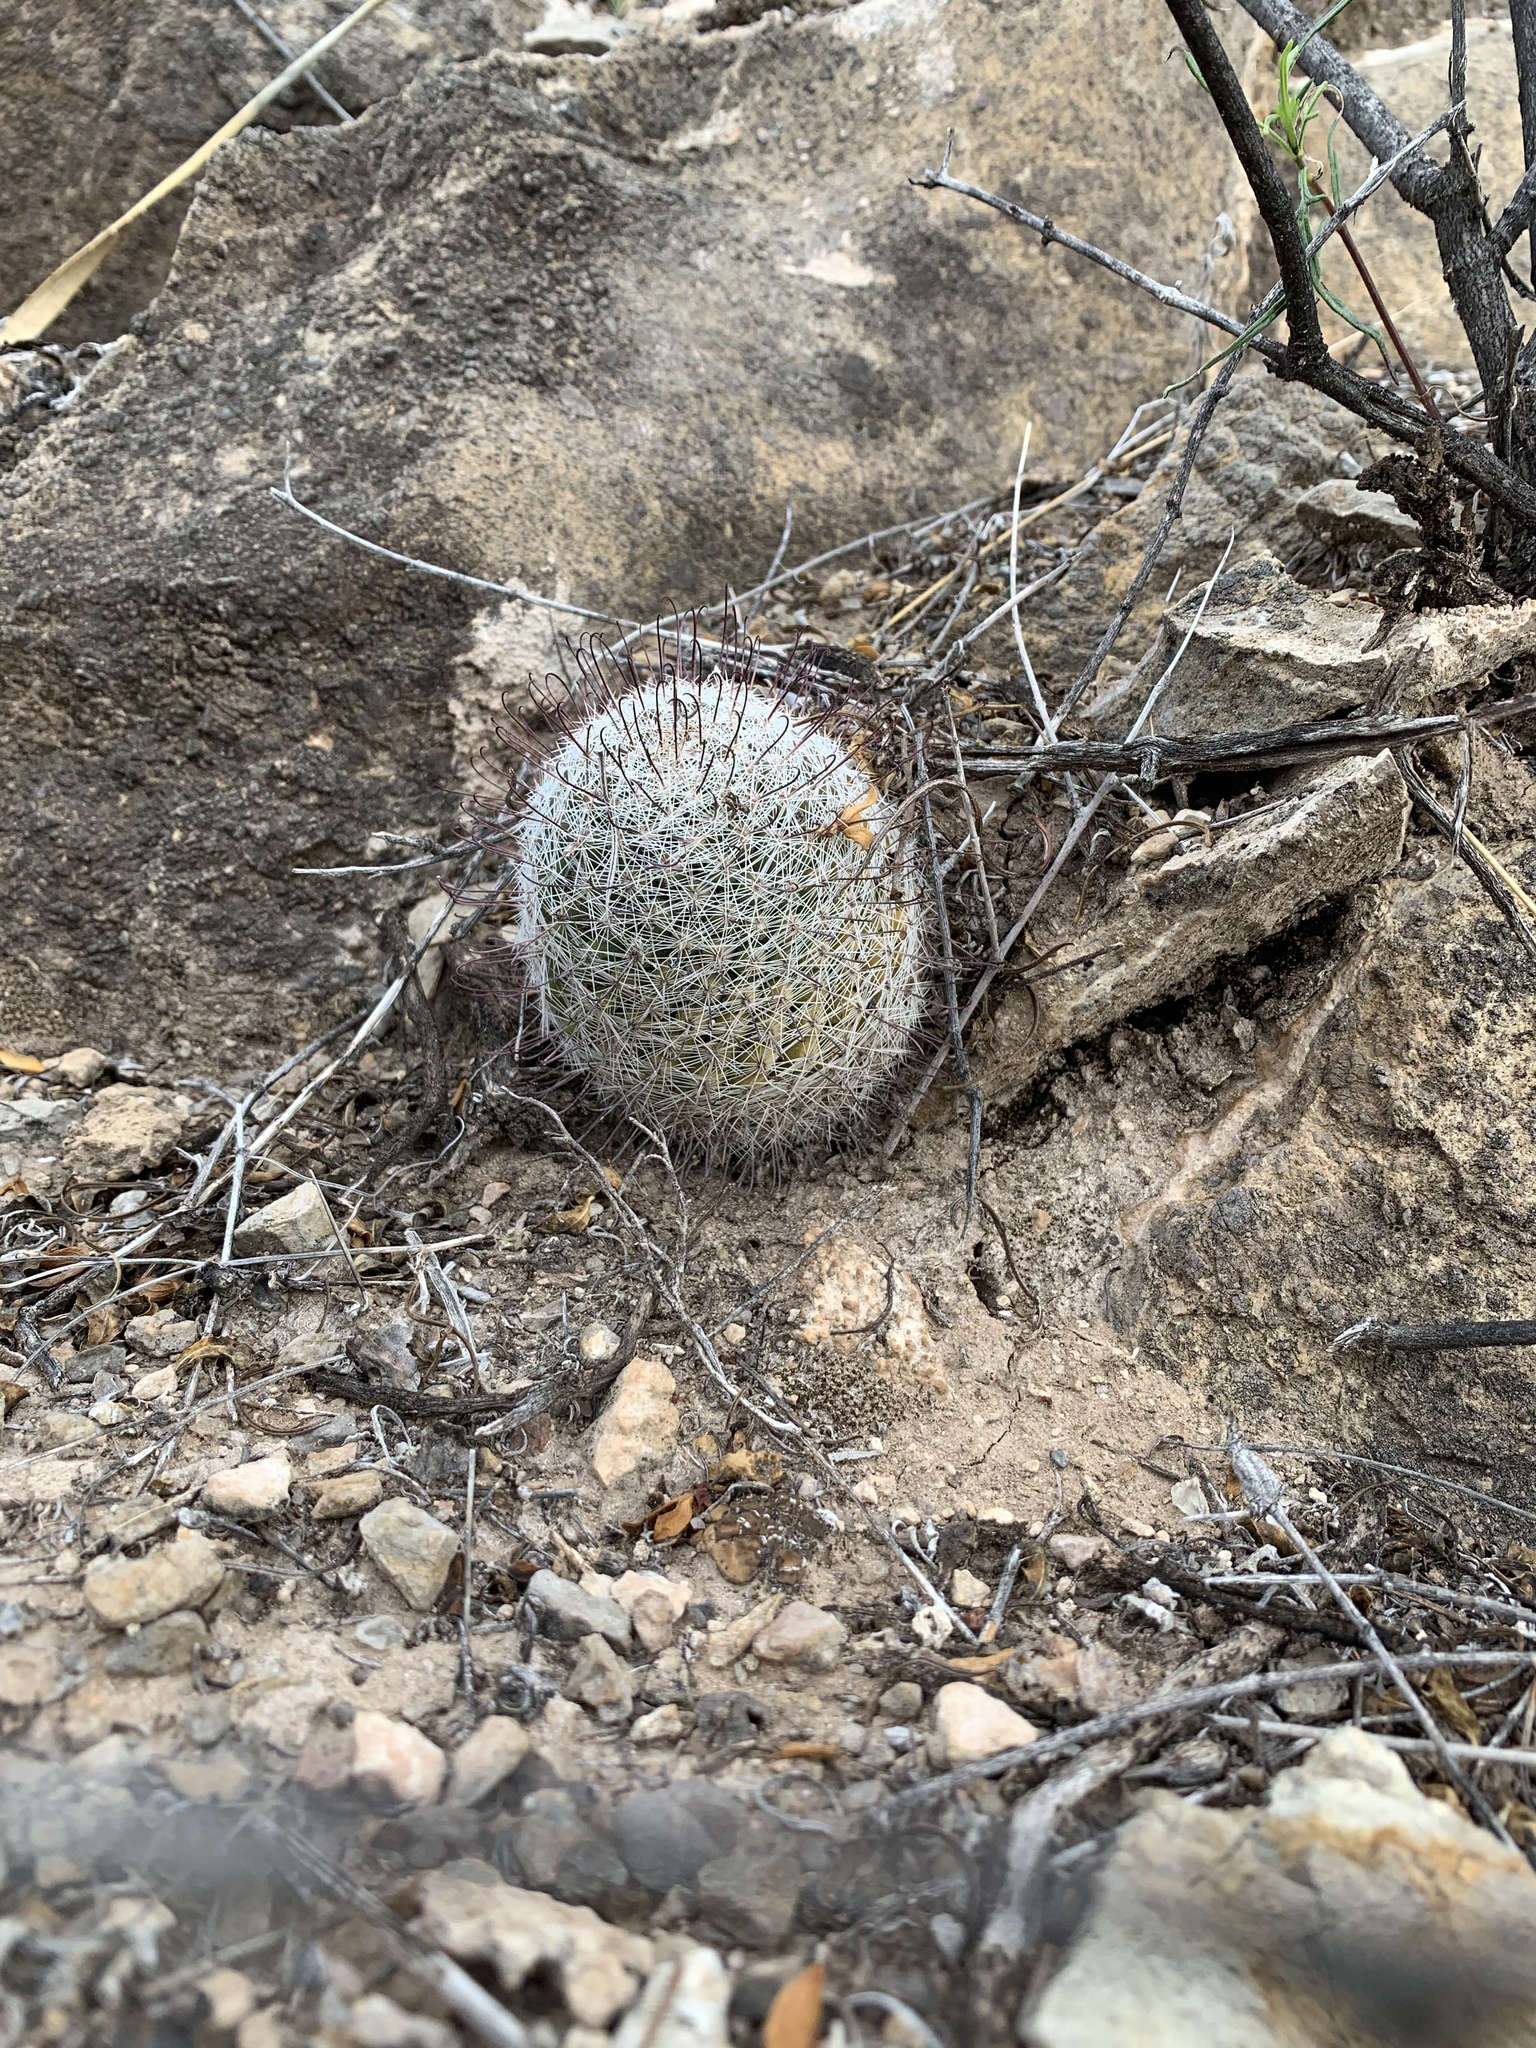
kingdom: Plantae
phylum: Tracheophyta
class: Magnoliopsida
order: Caryophyllales
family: Cactaceae
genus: Cochemiea
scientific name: Cochemiea grahamii
